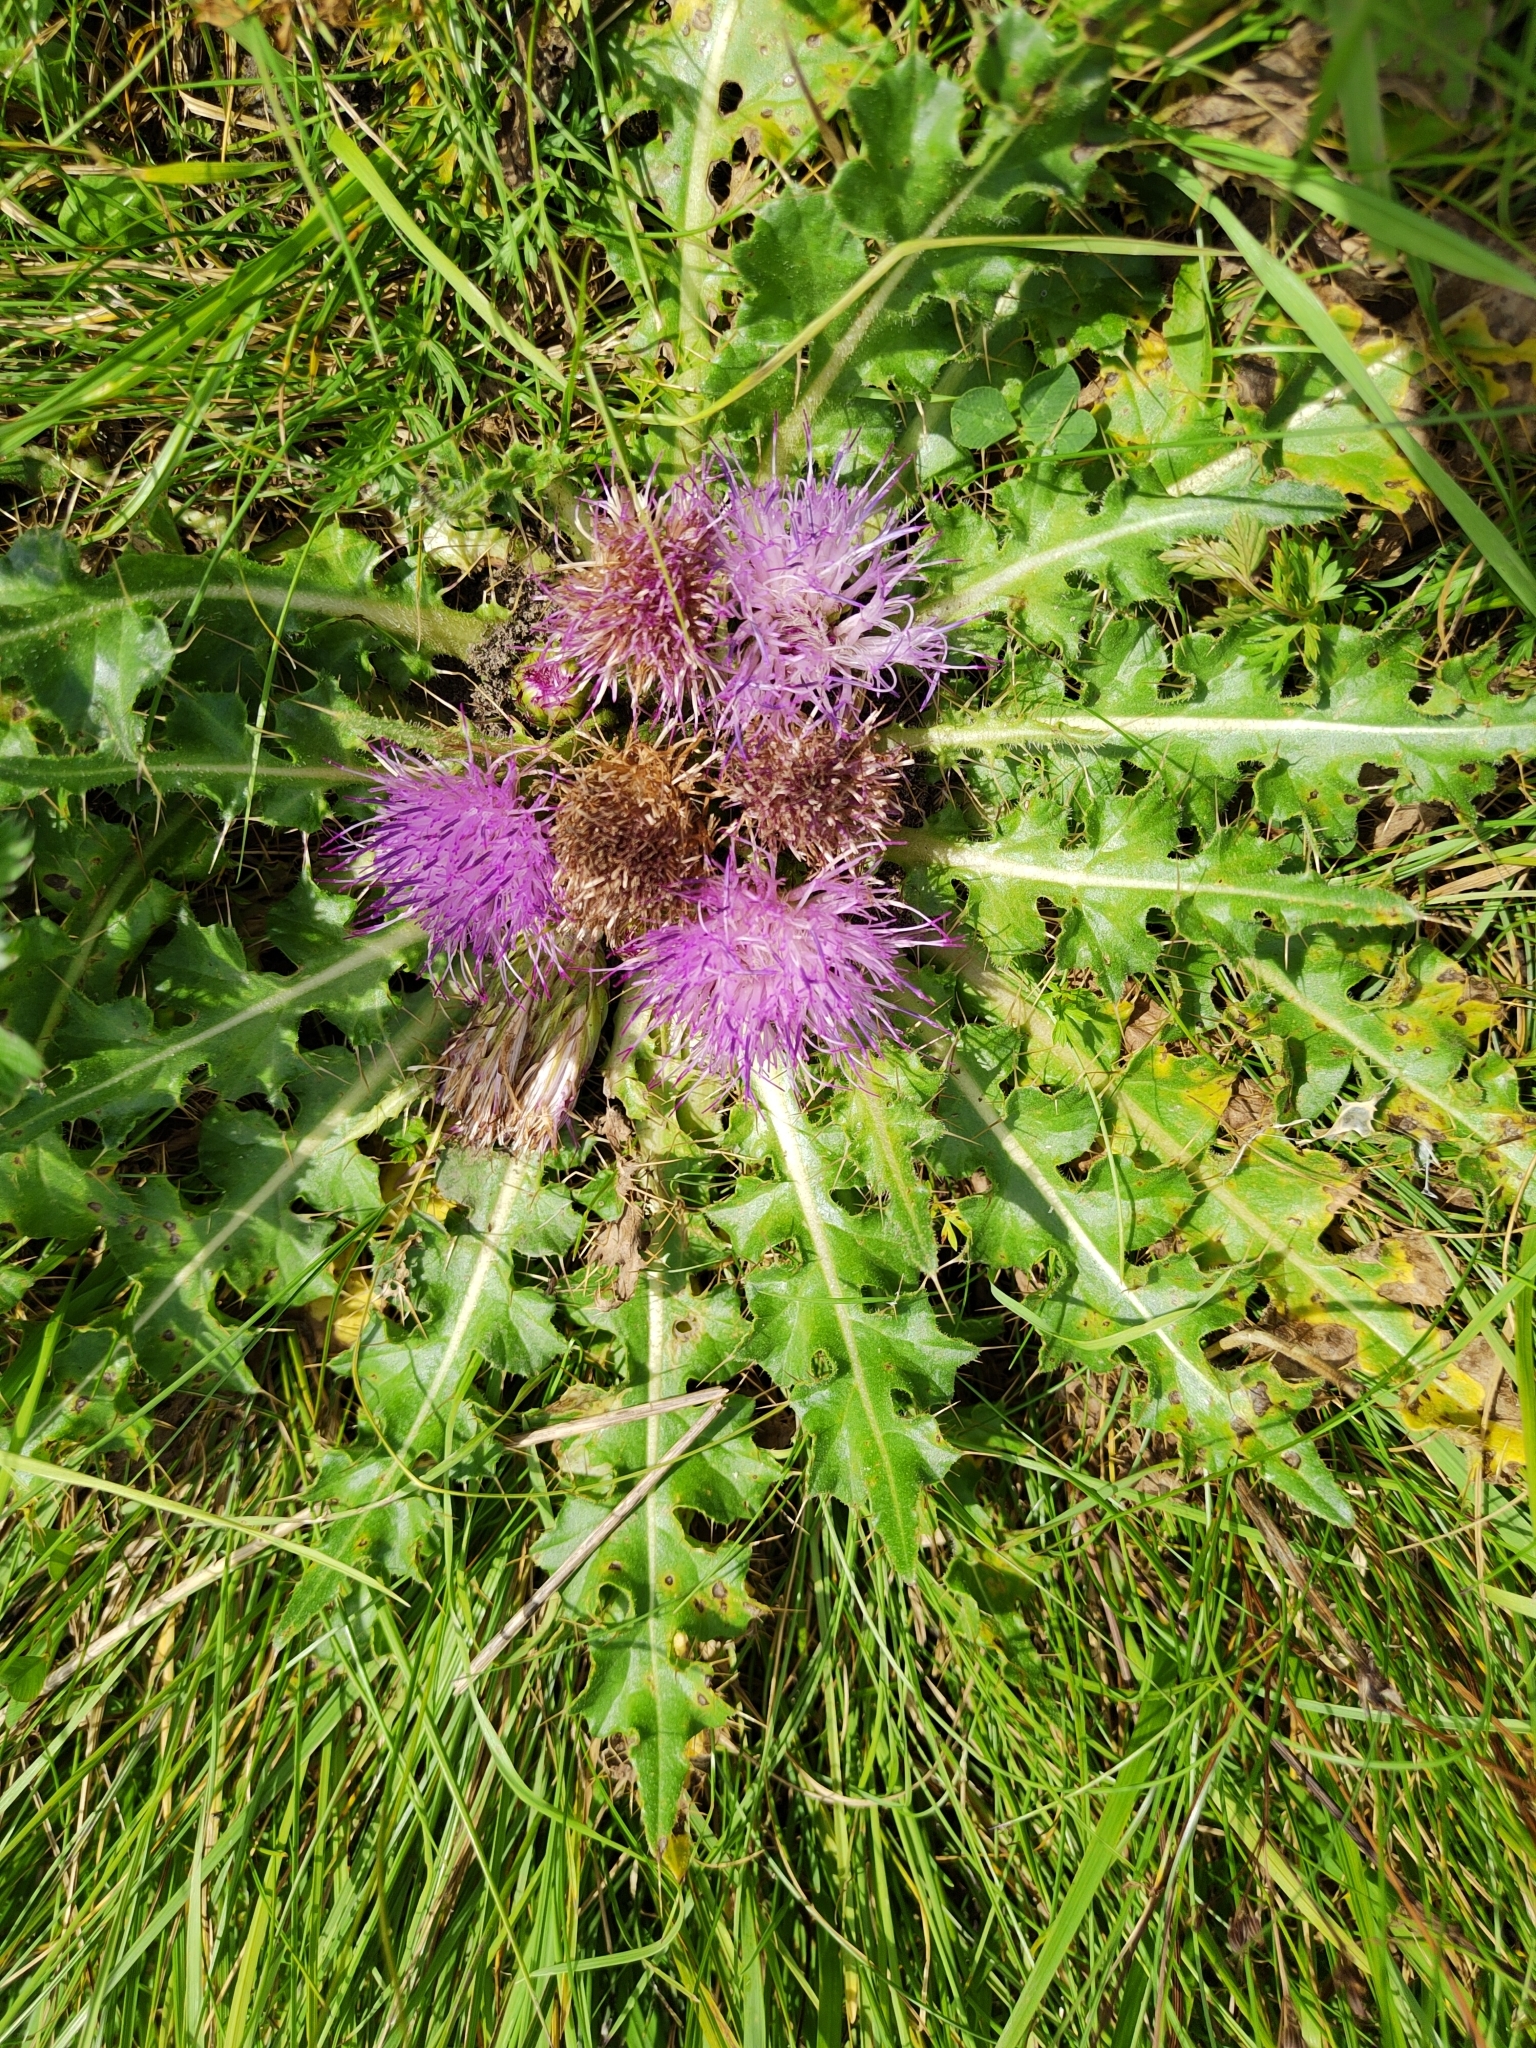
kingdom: Plantae
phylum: Tracheophyta
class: Magnoliopsida
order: Asterales
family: Asteraceae
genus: Cirsium
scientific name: Cirsium esculentum
